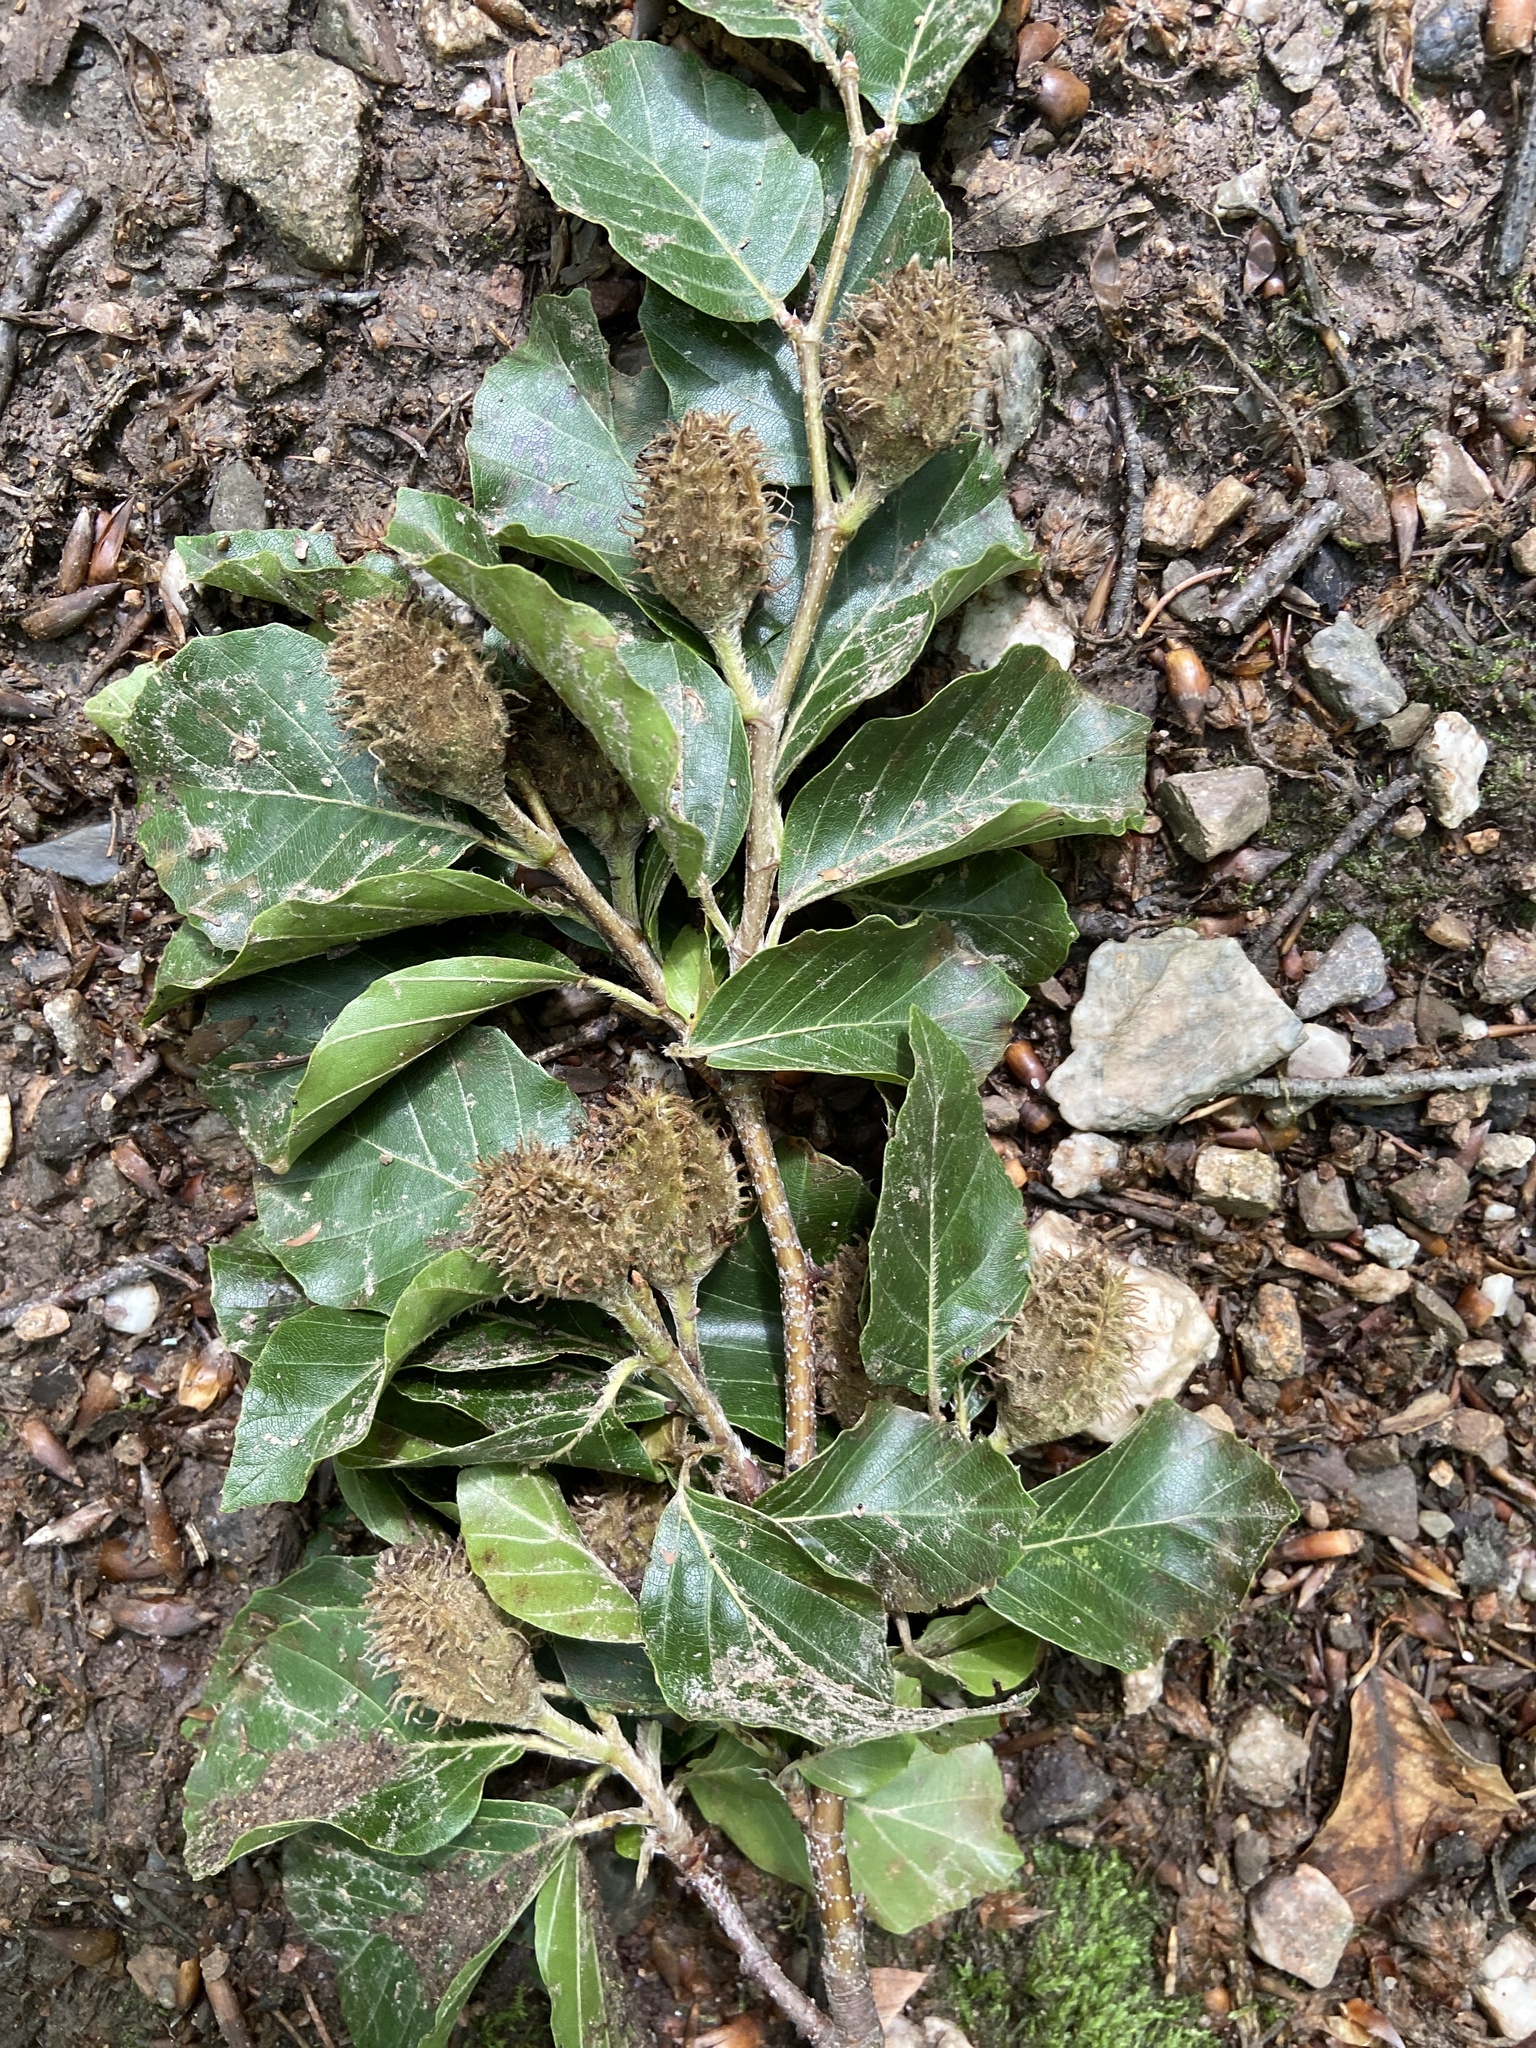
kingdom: Plantae
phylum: Tracheophyta
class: Magnoliopsida
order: Fagales
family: Fagaceae
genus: Fagus
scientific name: Fagus sylvatica
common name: Beech
